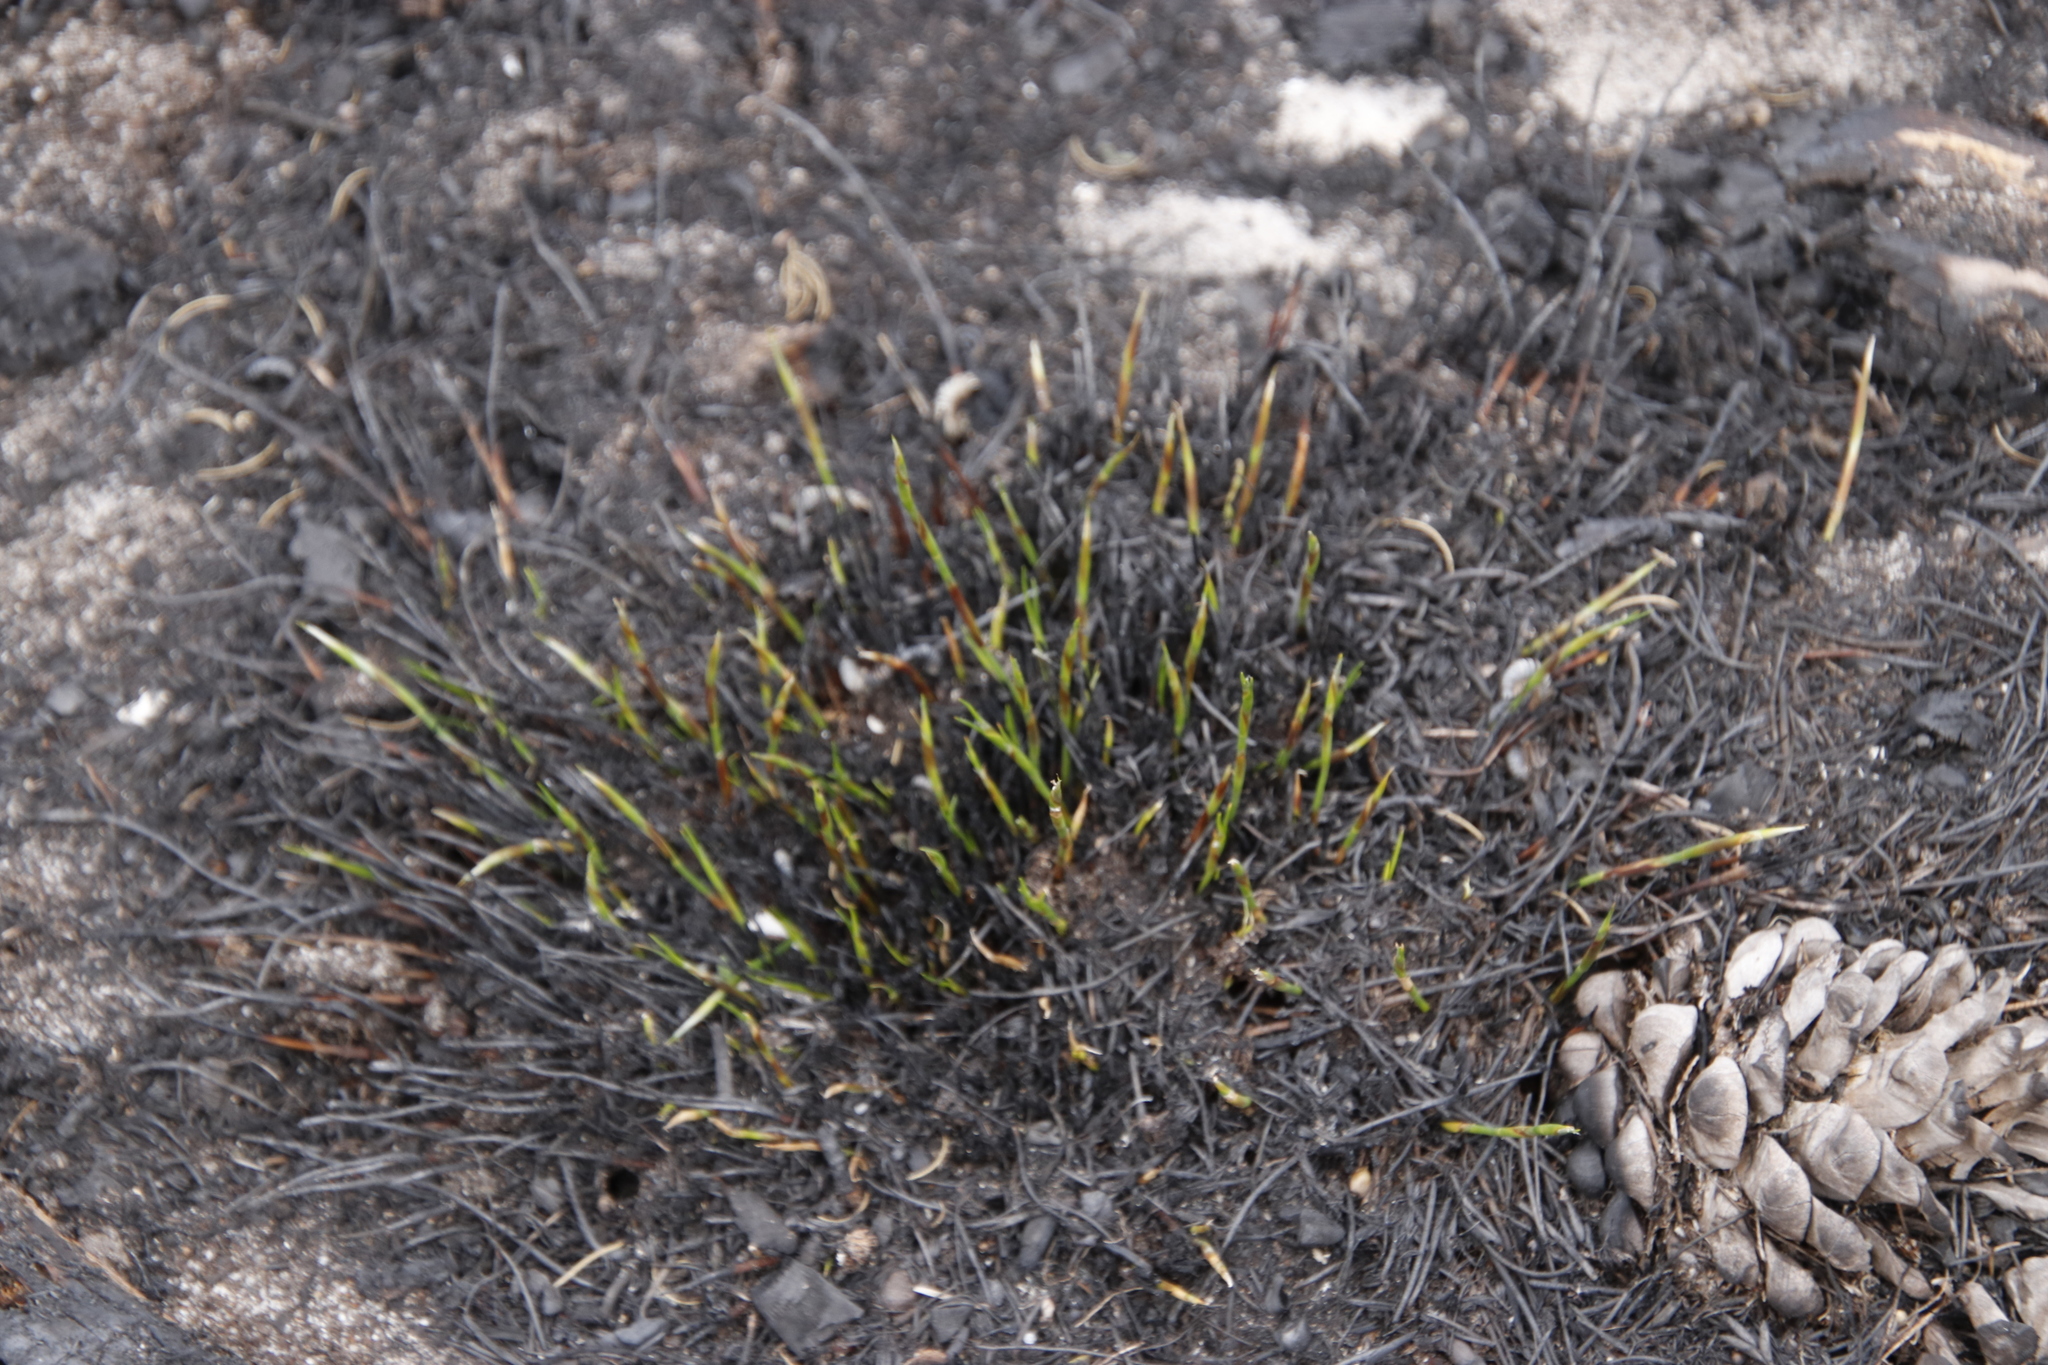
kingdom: Plantae
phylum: Tracheophyta
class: Liliopsida
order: Poales
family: Restionaceae
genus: Restio
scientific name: Restio capensis
